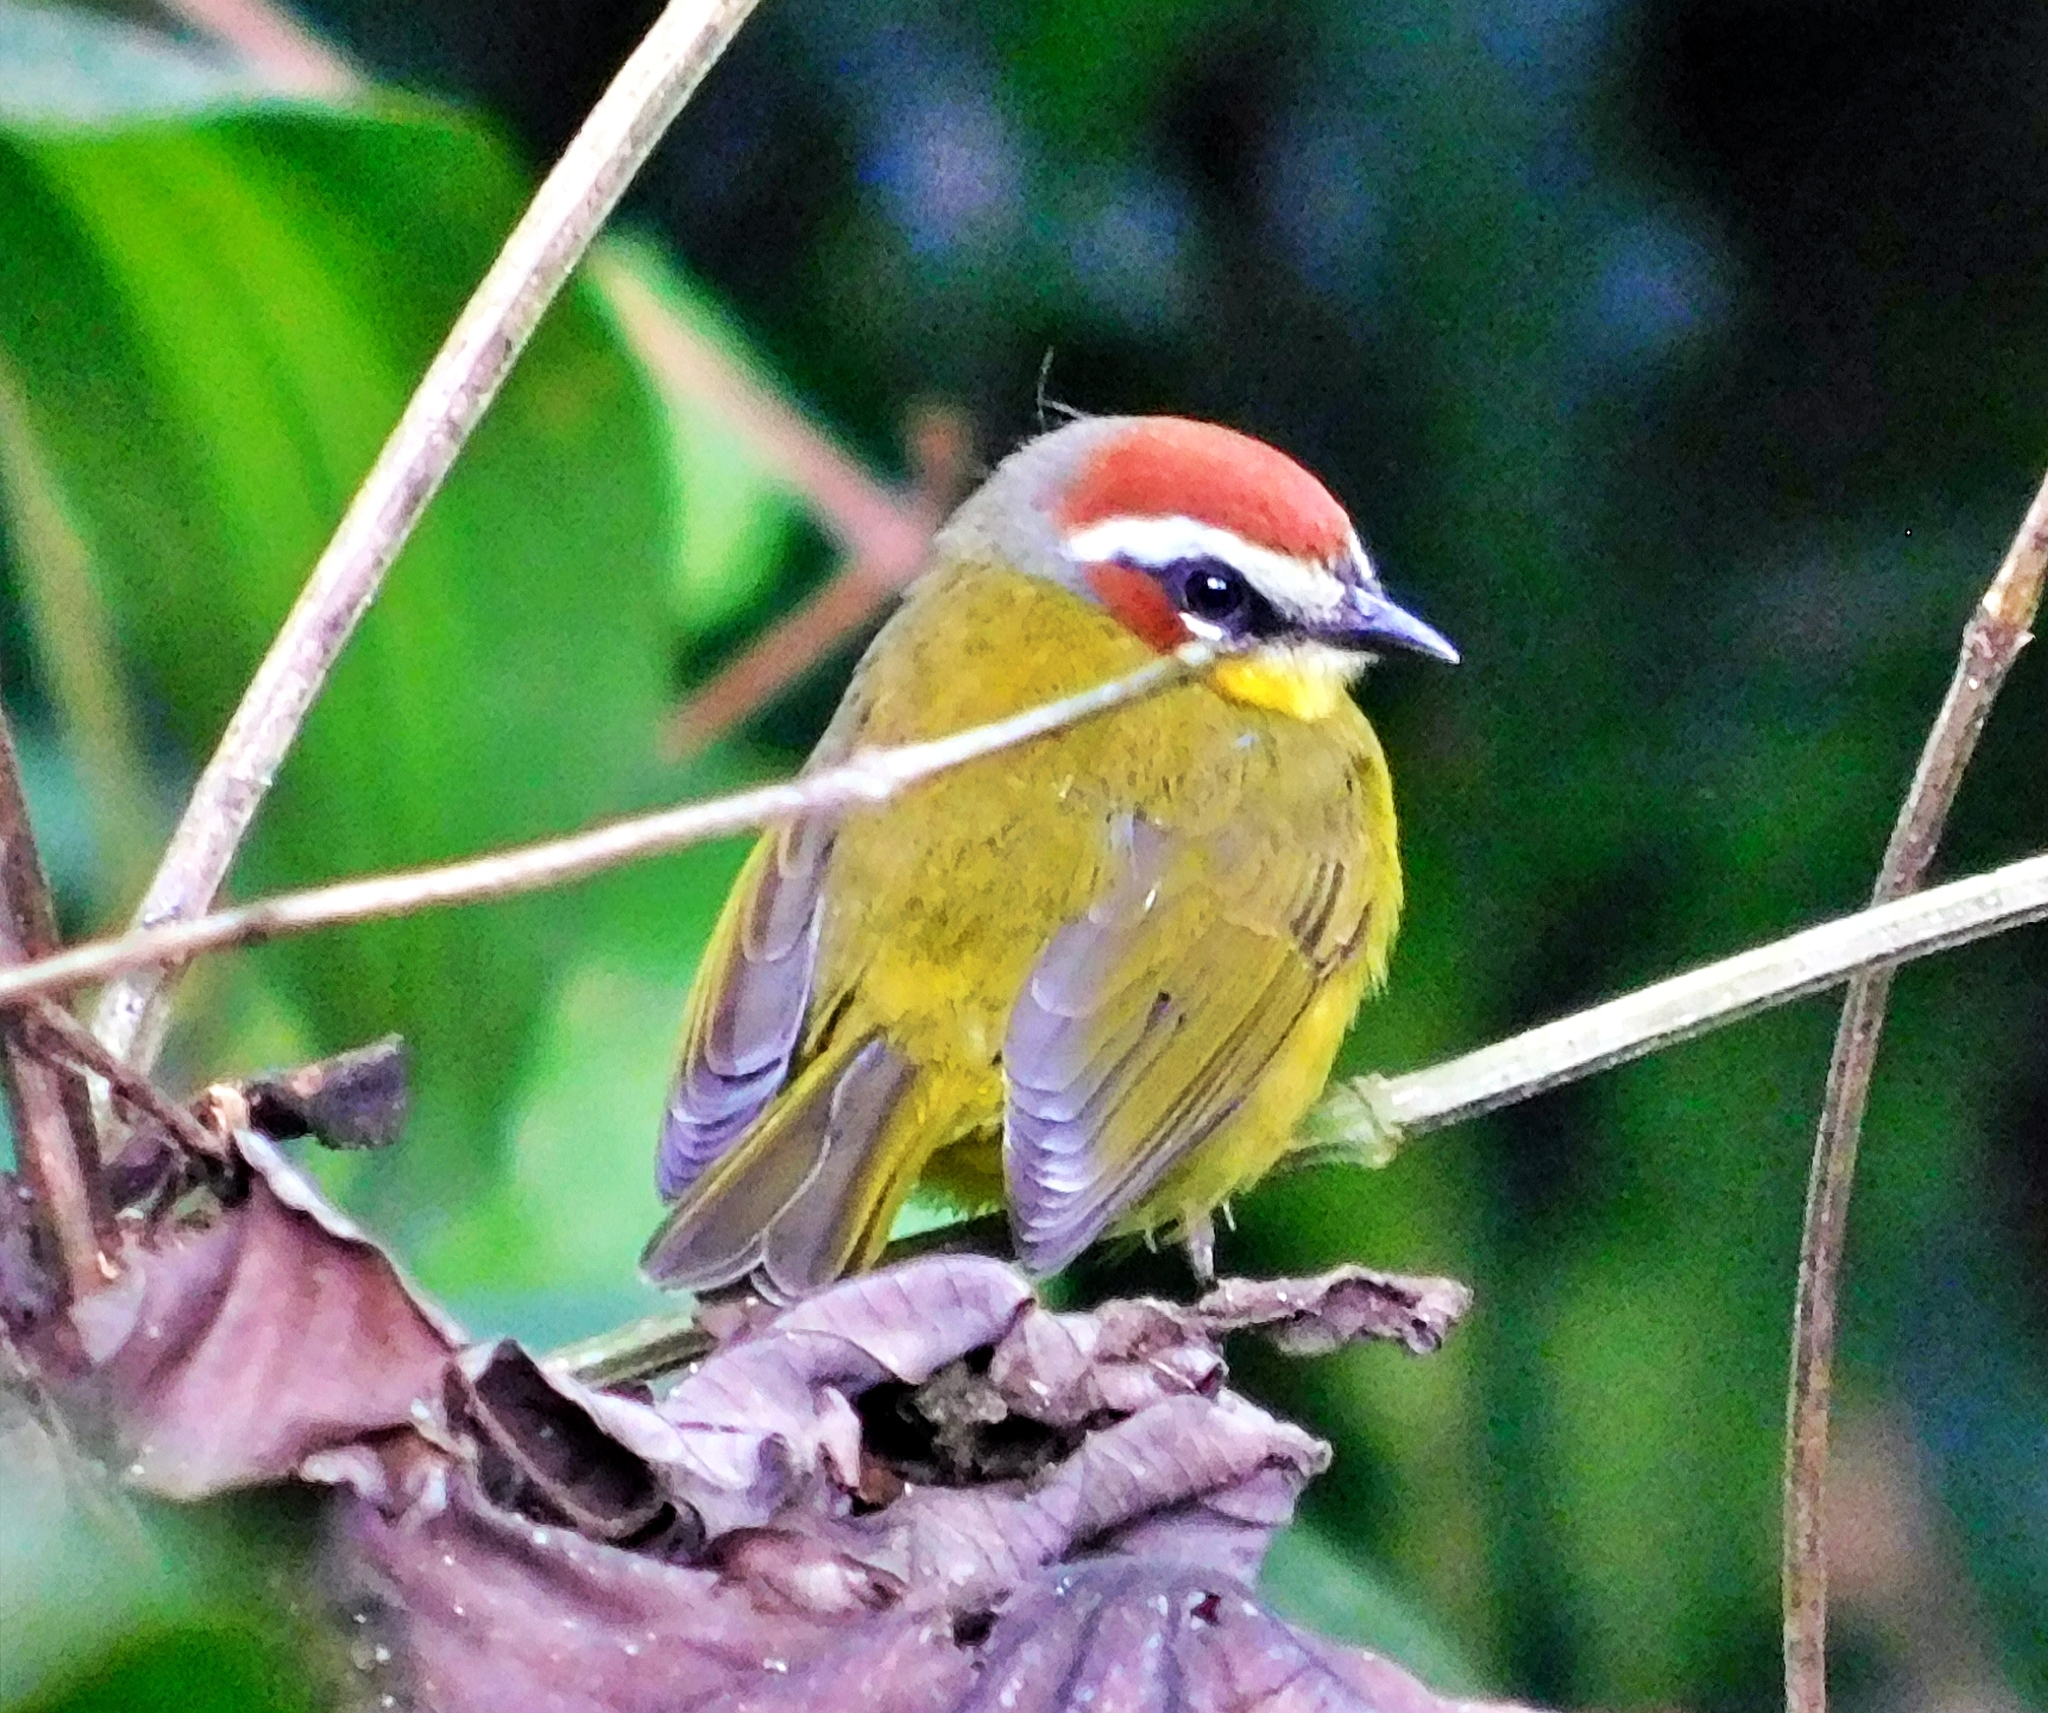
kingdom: Animalia
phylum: Chordata
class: Aves
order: Passeriformes
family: Parulidae
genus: Basileuterus
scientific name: Basileuterus rufifrons
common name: Rufous-capped warbler
